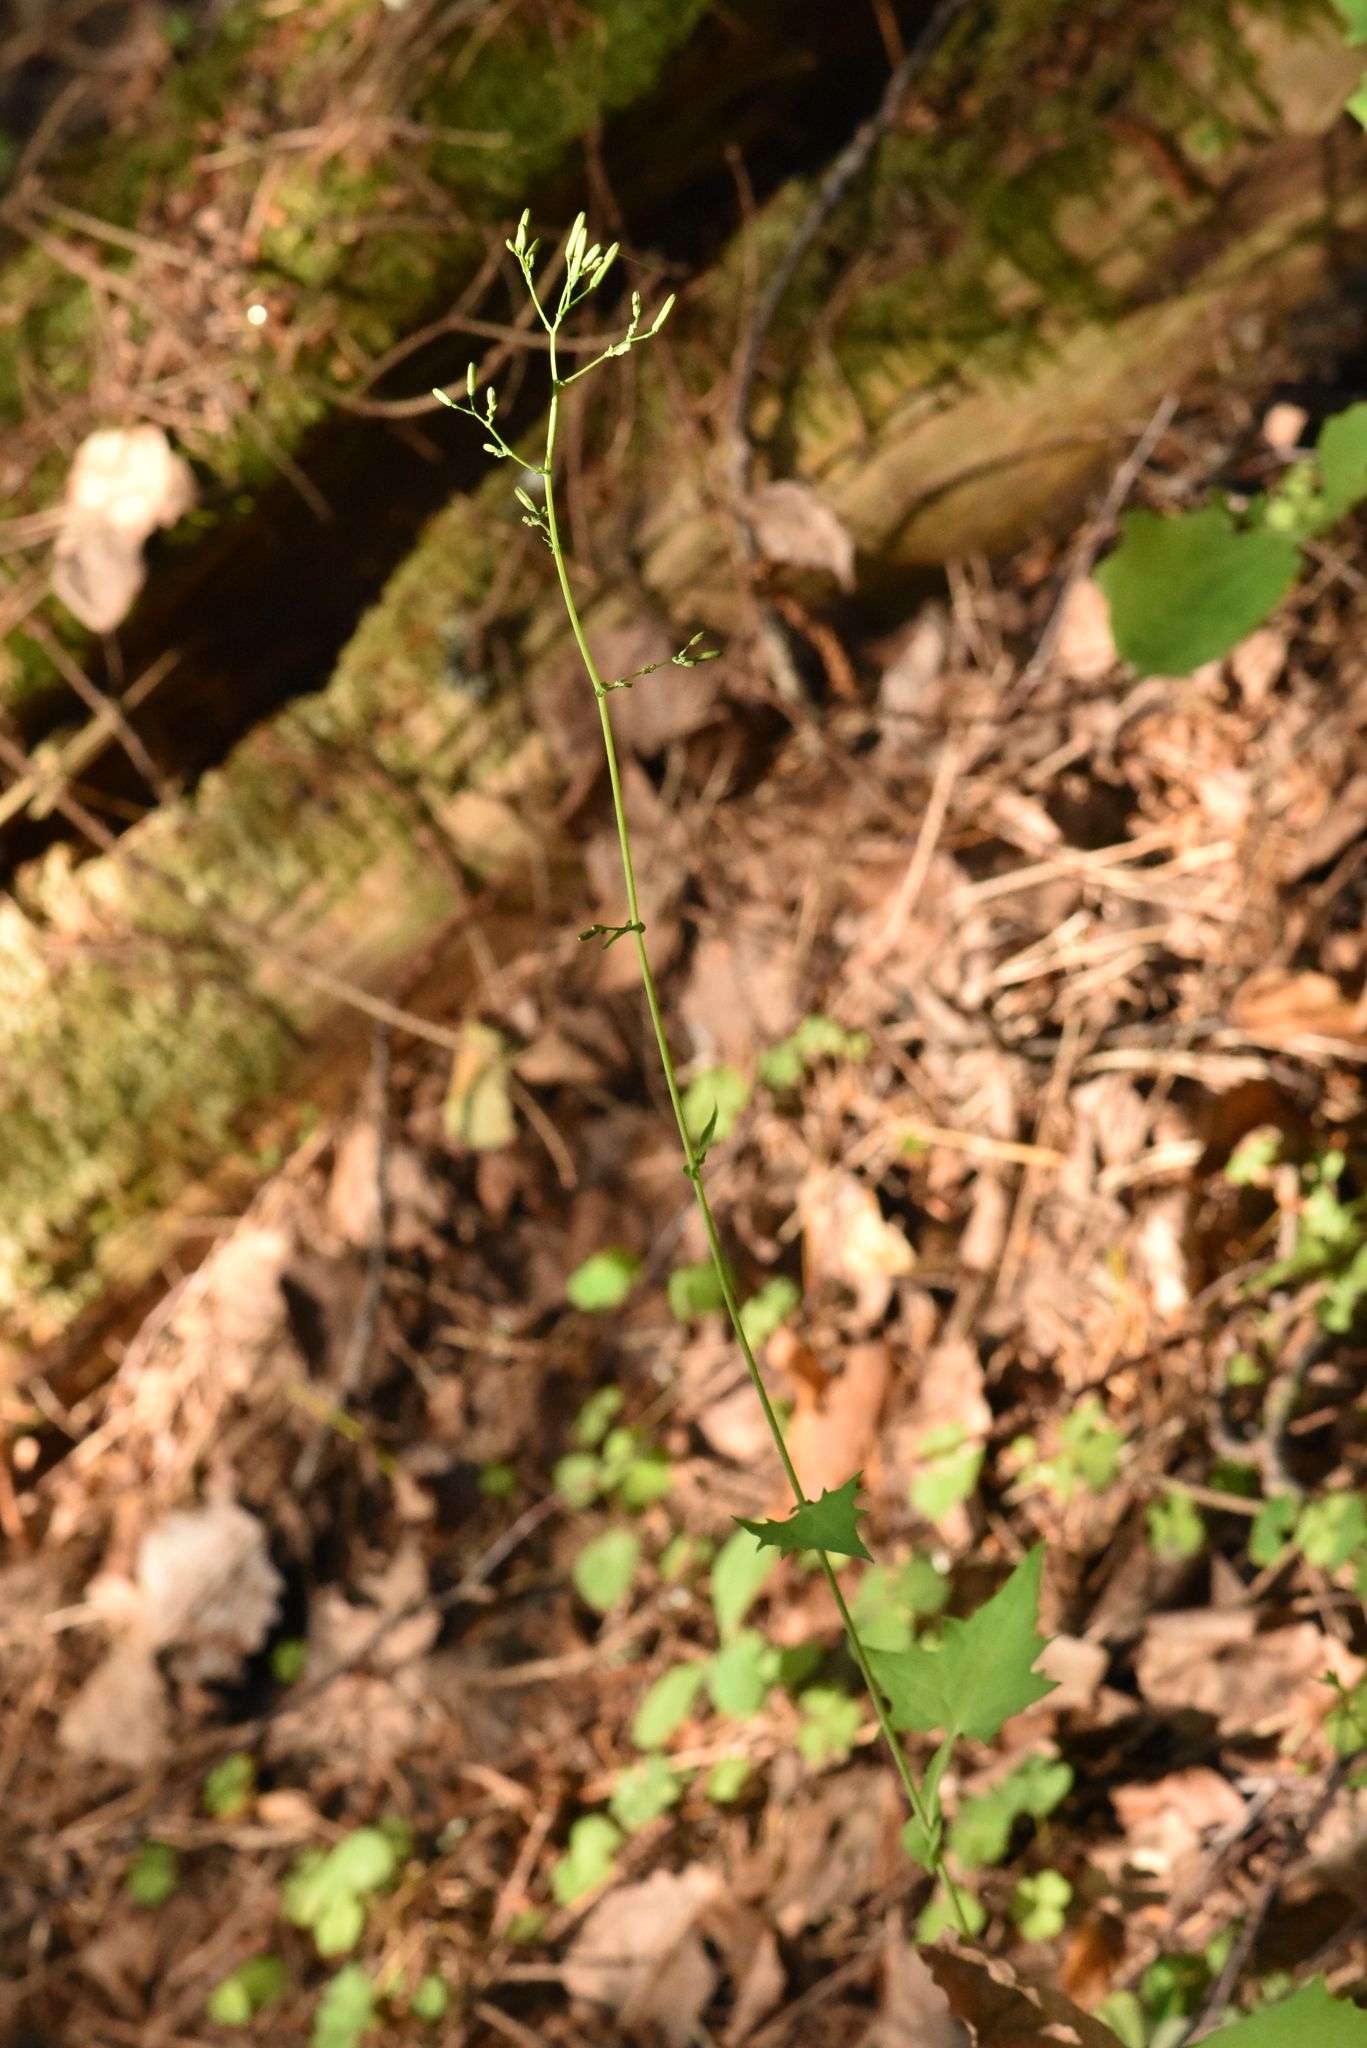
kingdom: Plantae
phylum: Tracheophyta
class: Magnoliopsida
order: Asterales
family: Asteraceae
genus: Mycelis
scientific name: Mycelis muralis
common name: Wall lettuce
